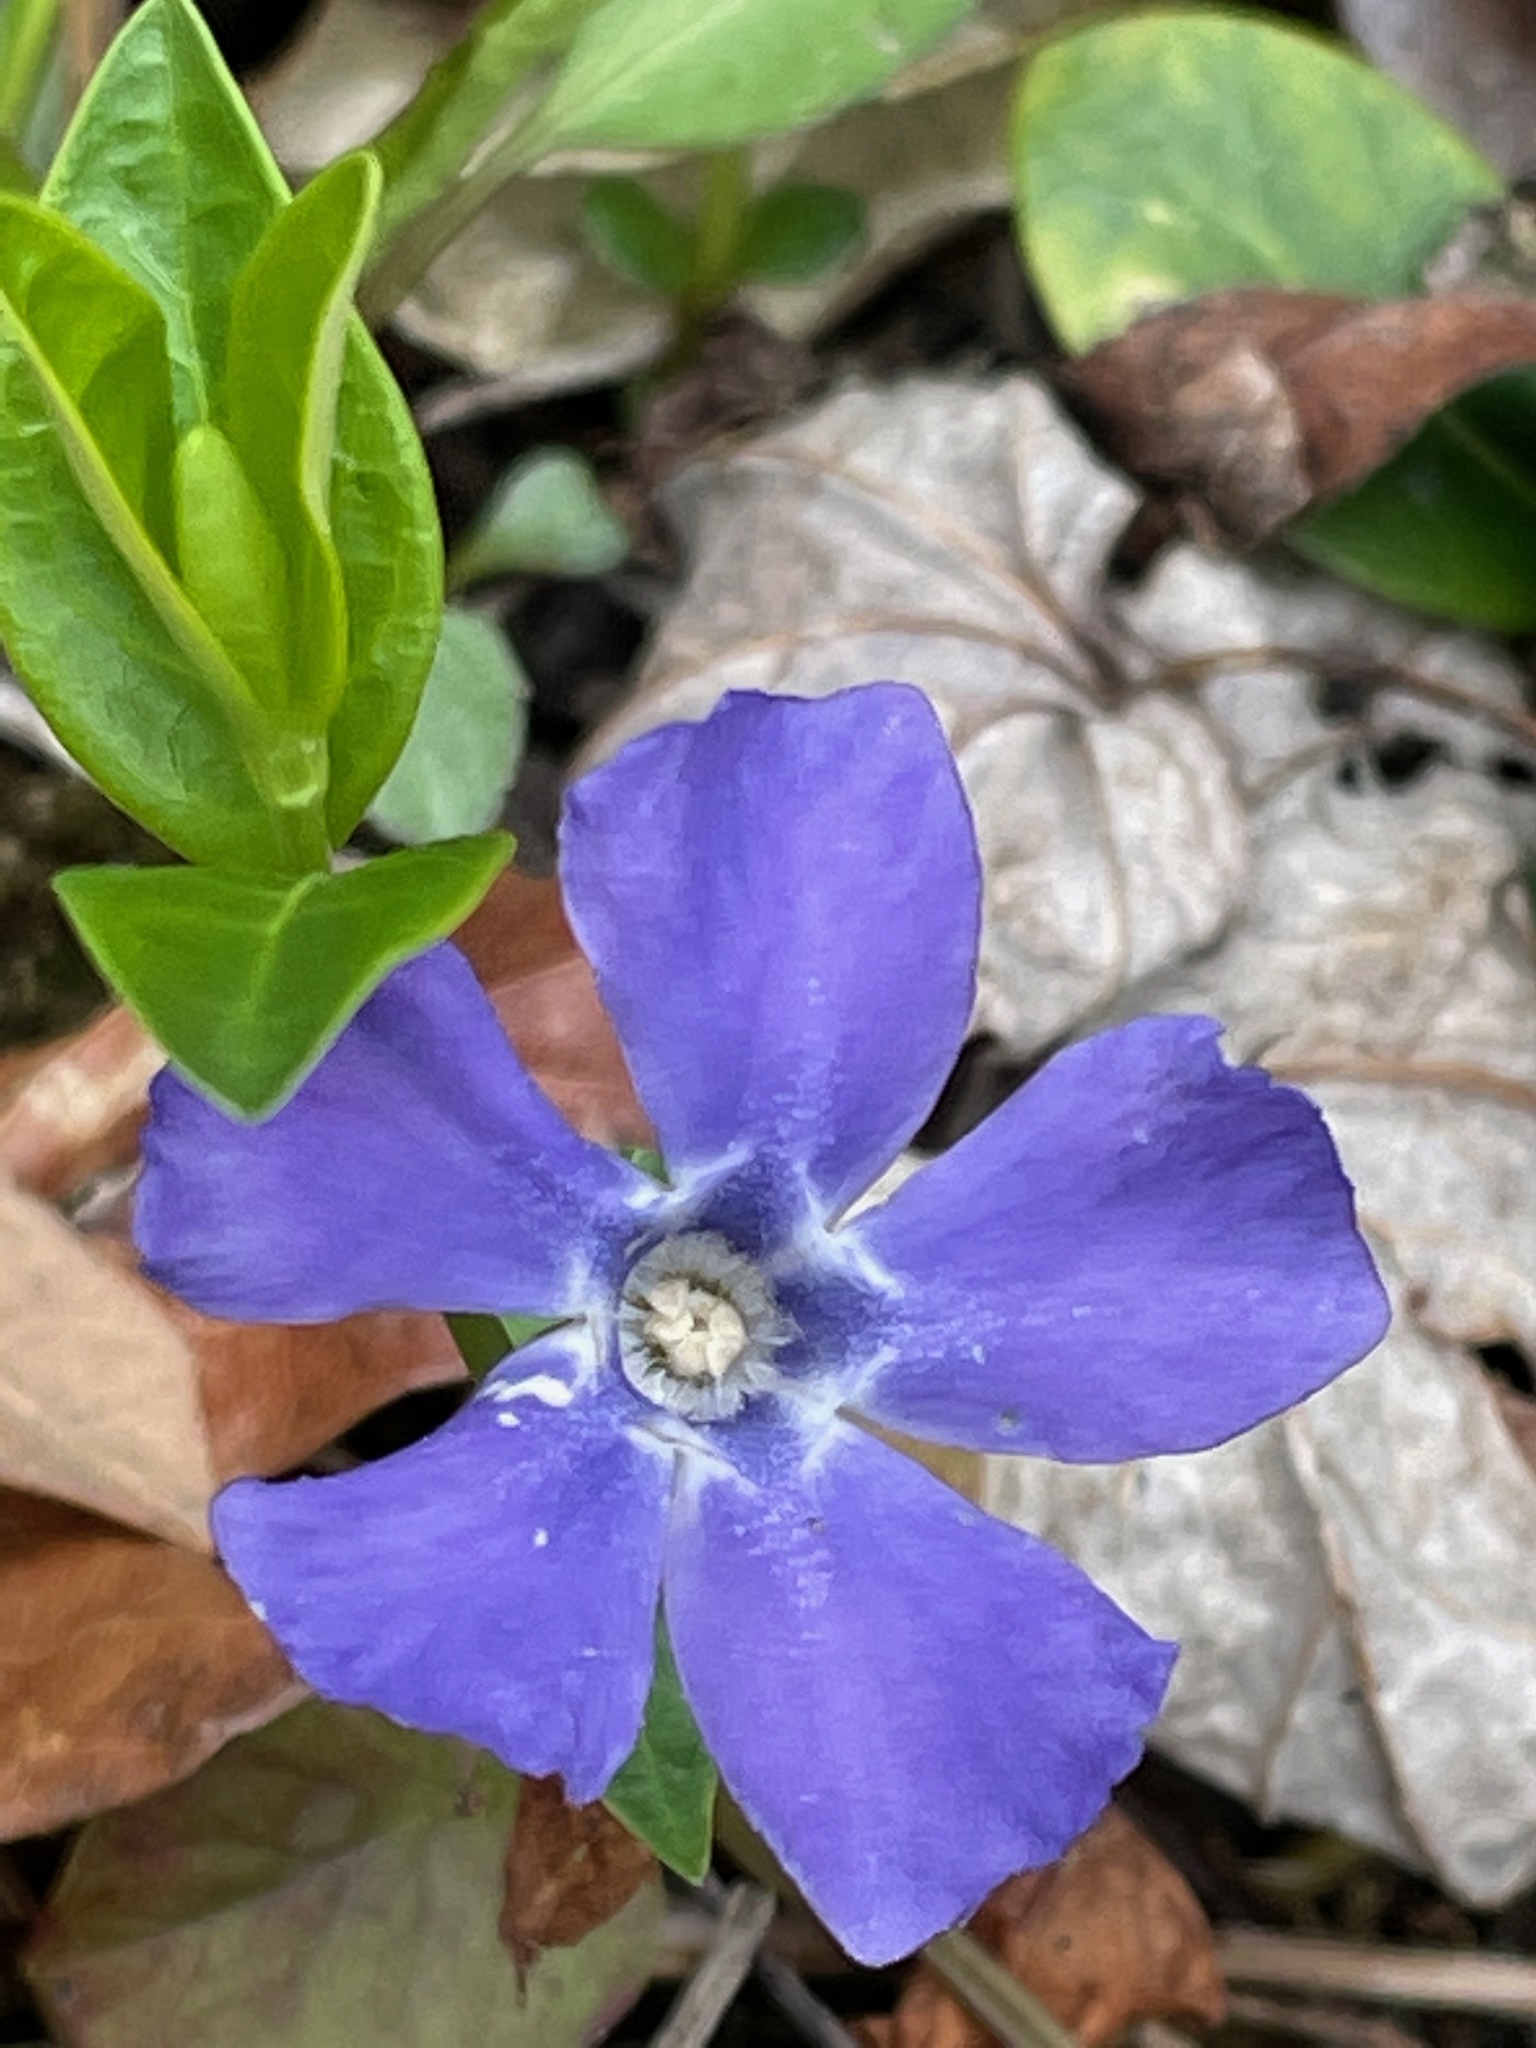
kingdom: Plantae
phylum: Tracheophyta
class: Magnoliopsida
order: Gentianales
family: Apocynaceae
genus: Vinca
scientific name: Vinca minor
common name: Lesser periwinkle
